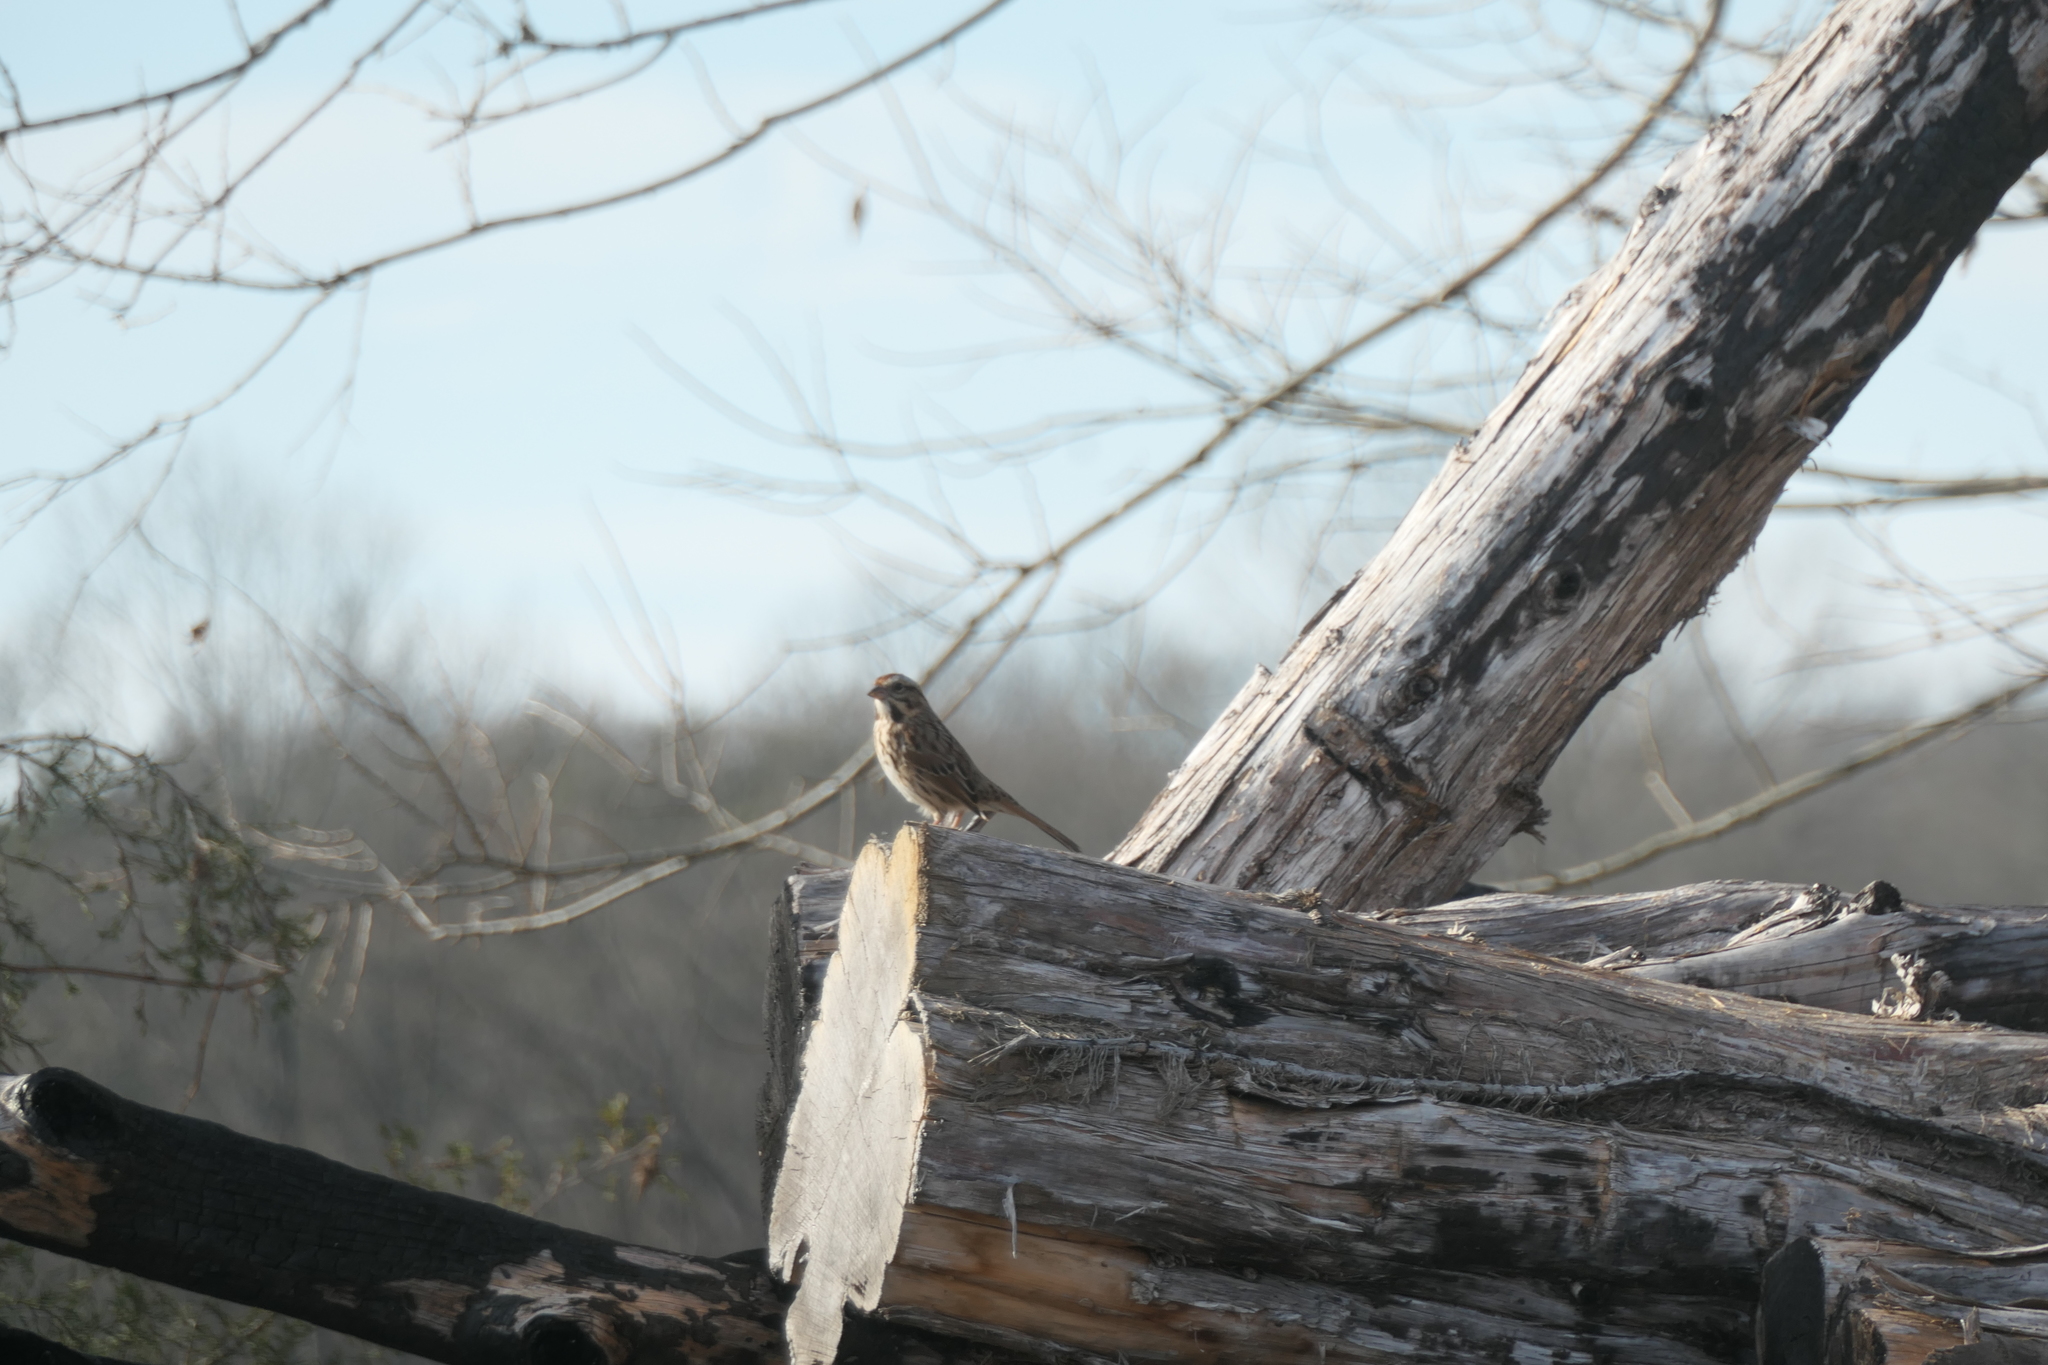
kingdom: Animalia
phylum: Chordata
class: Aves
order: Passeriformes
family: Passerellidae
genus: Melospiza
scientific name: Melospiza melodia
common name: Song sparrow
